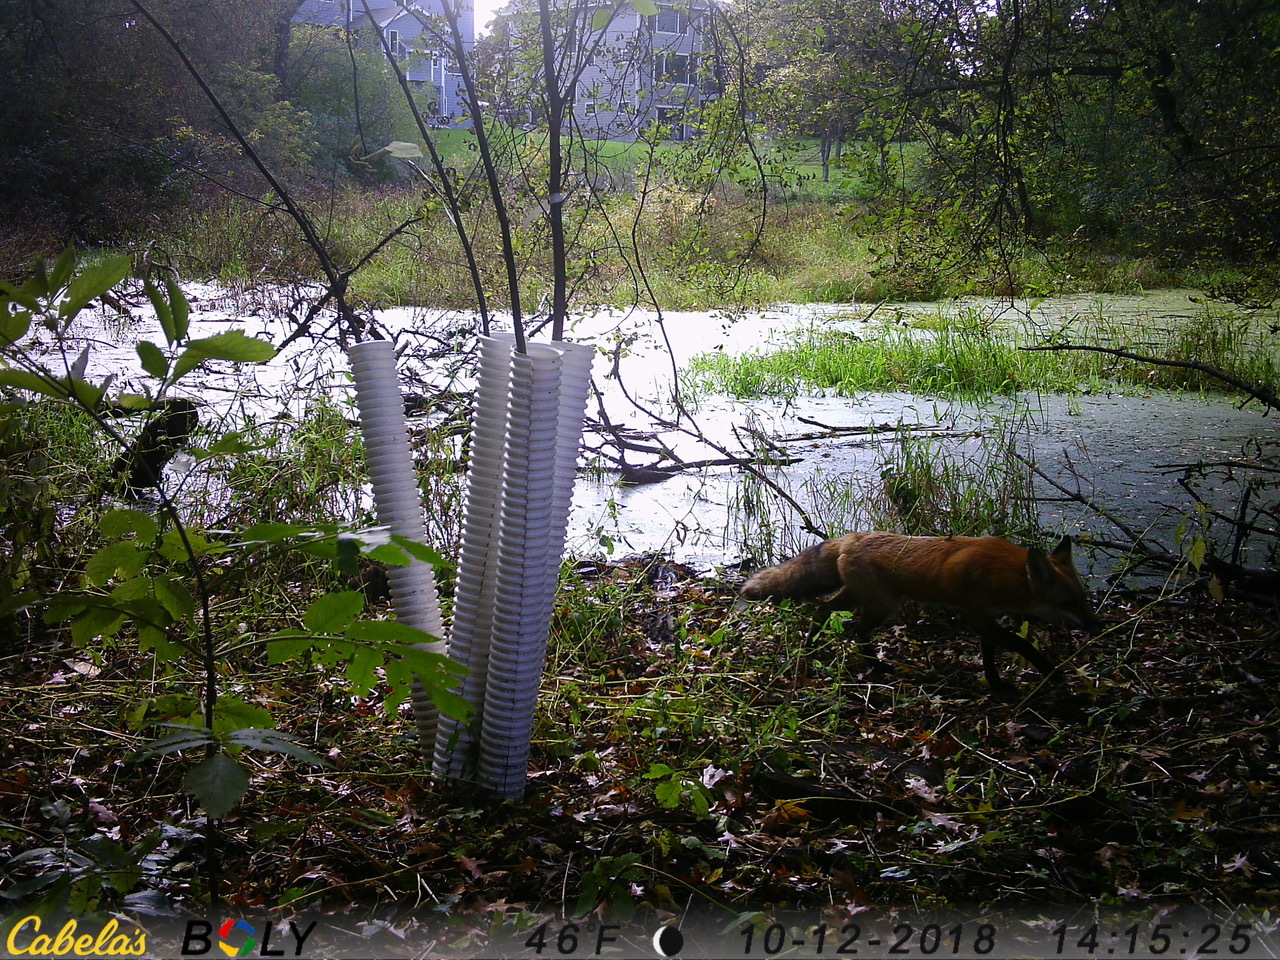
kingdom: Animalia
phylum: Chordata
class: Mammalia
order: Carnivora
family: Canidae
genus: Vulpes
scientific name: Vulpes vulpes
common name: Red fox
